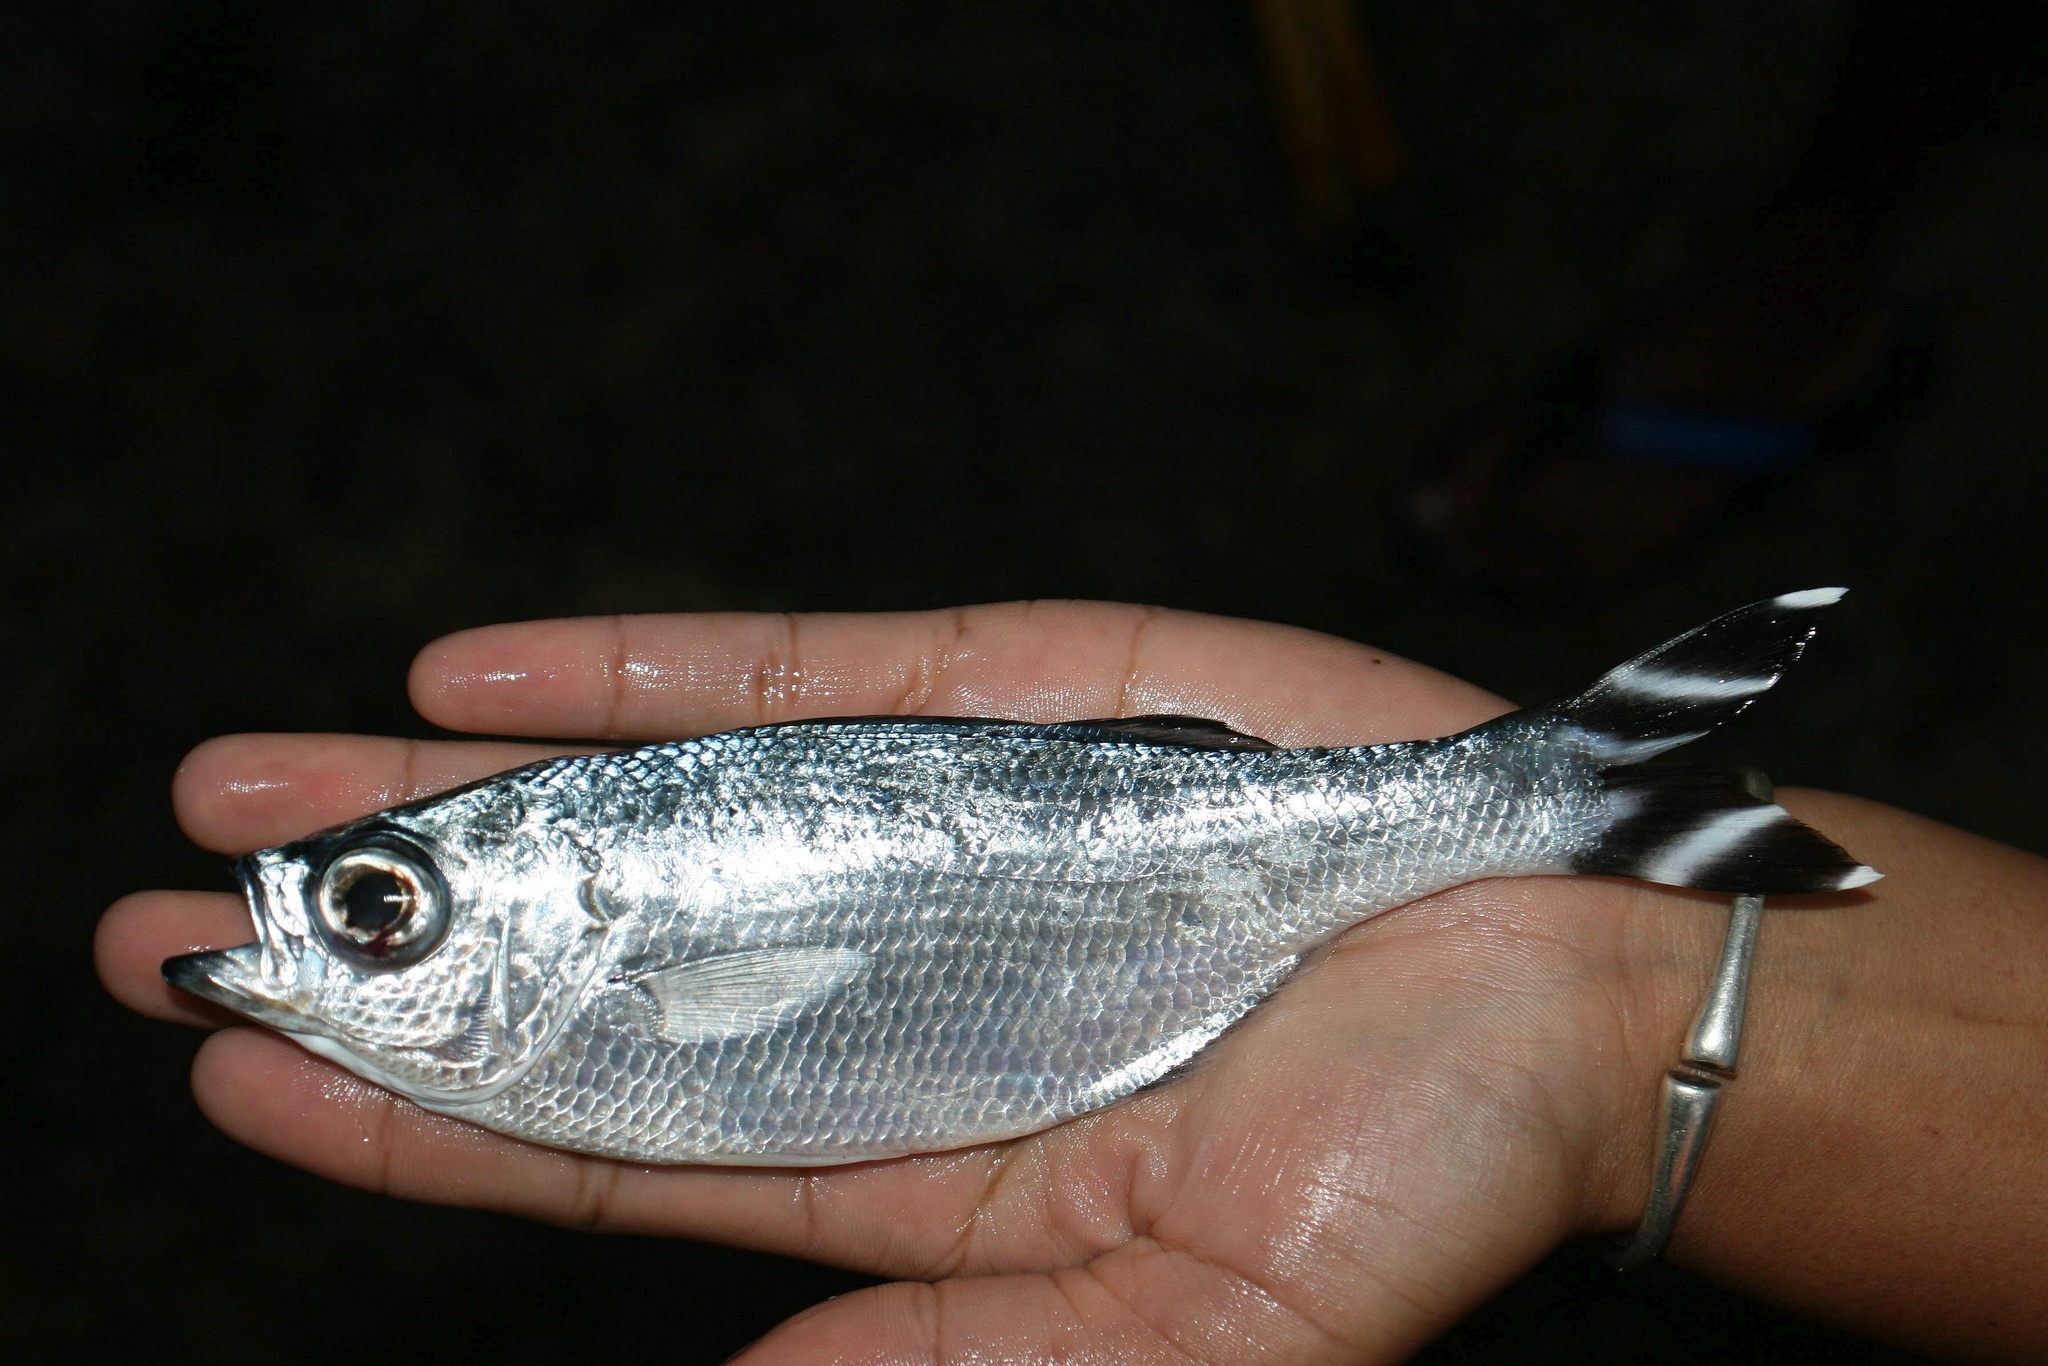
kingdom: Animalia
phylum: Chordata
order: Perciformes
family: Kuhliidae
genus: Kuhlia
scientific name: Kuhlia mugil
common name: Barred flagtail
